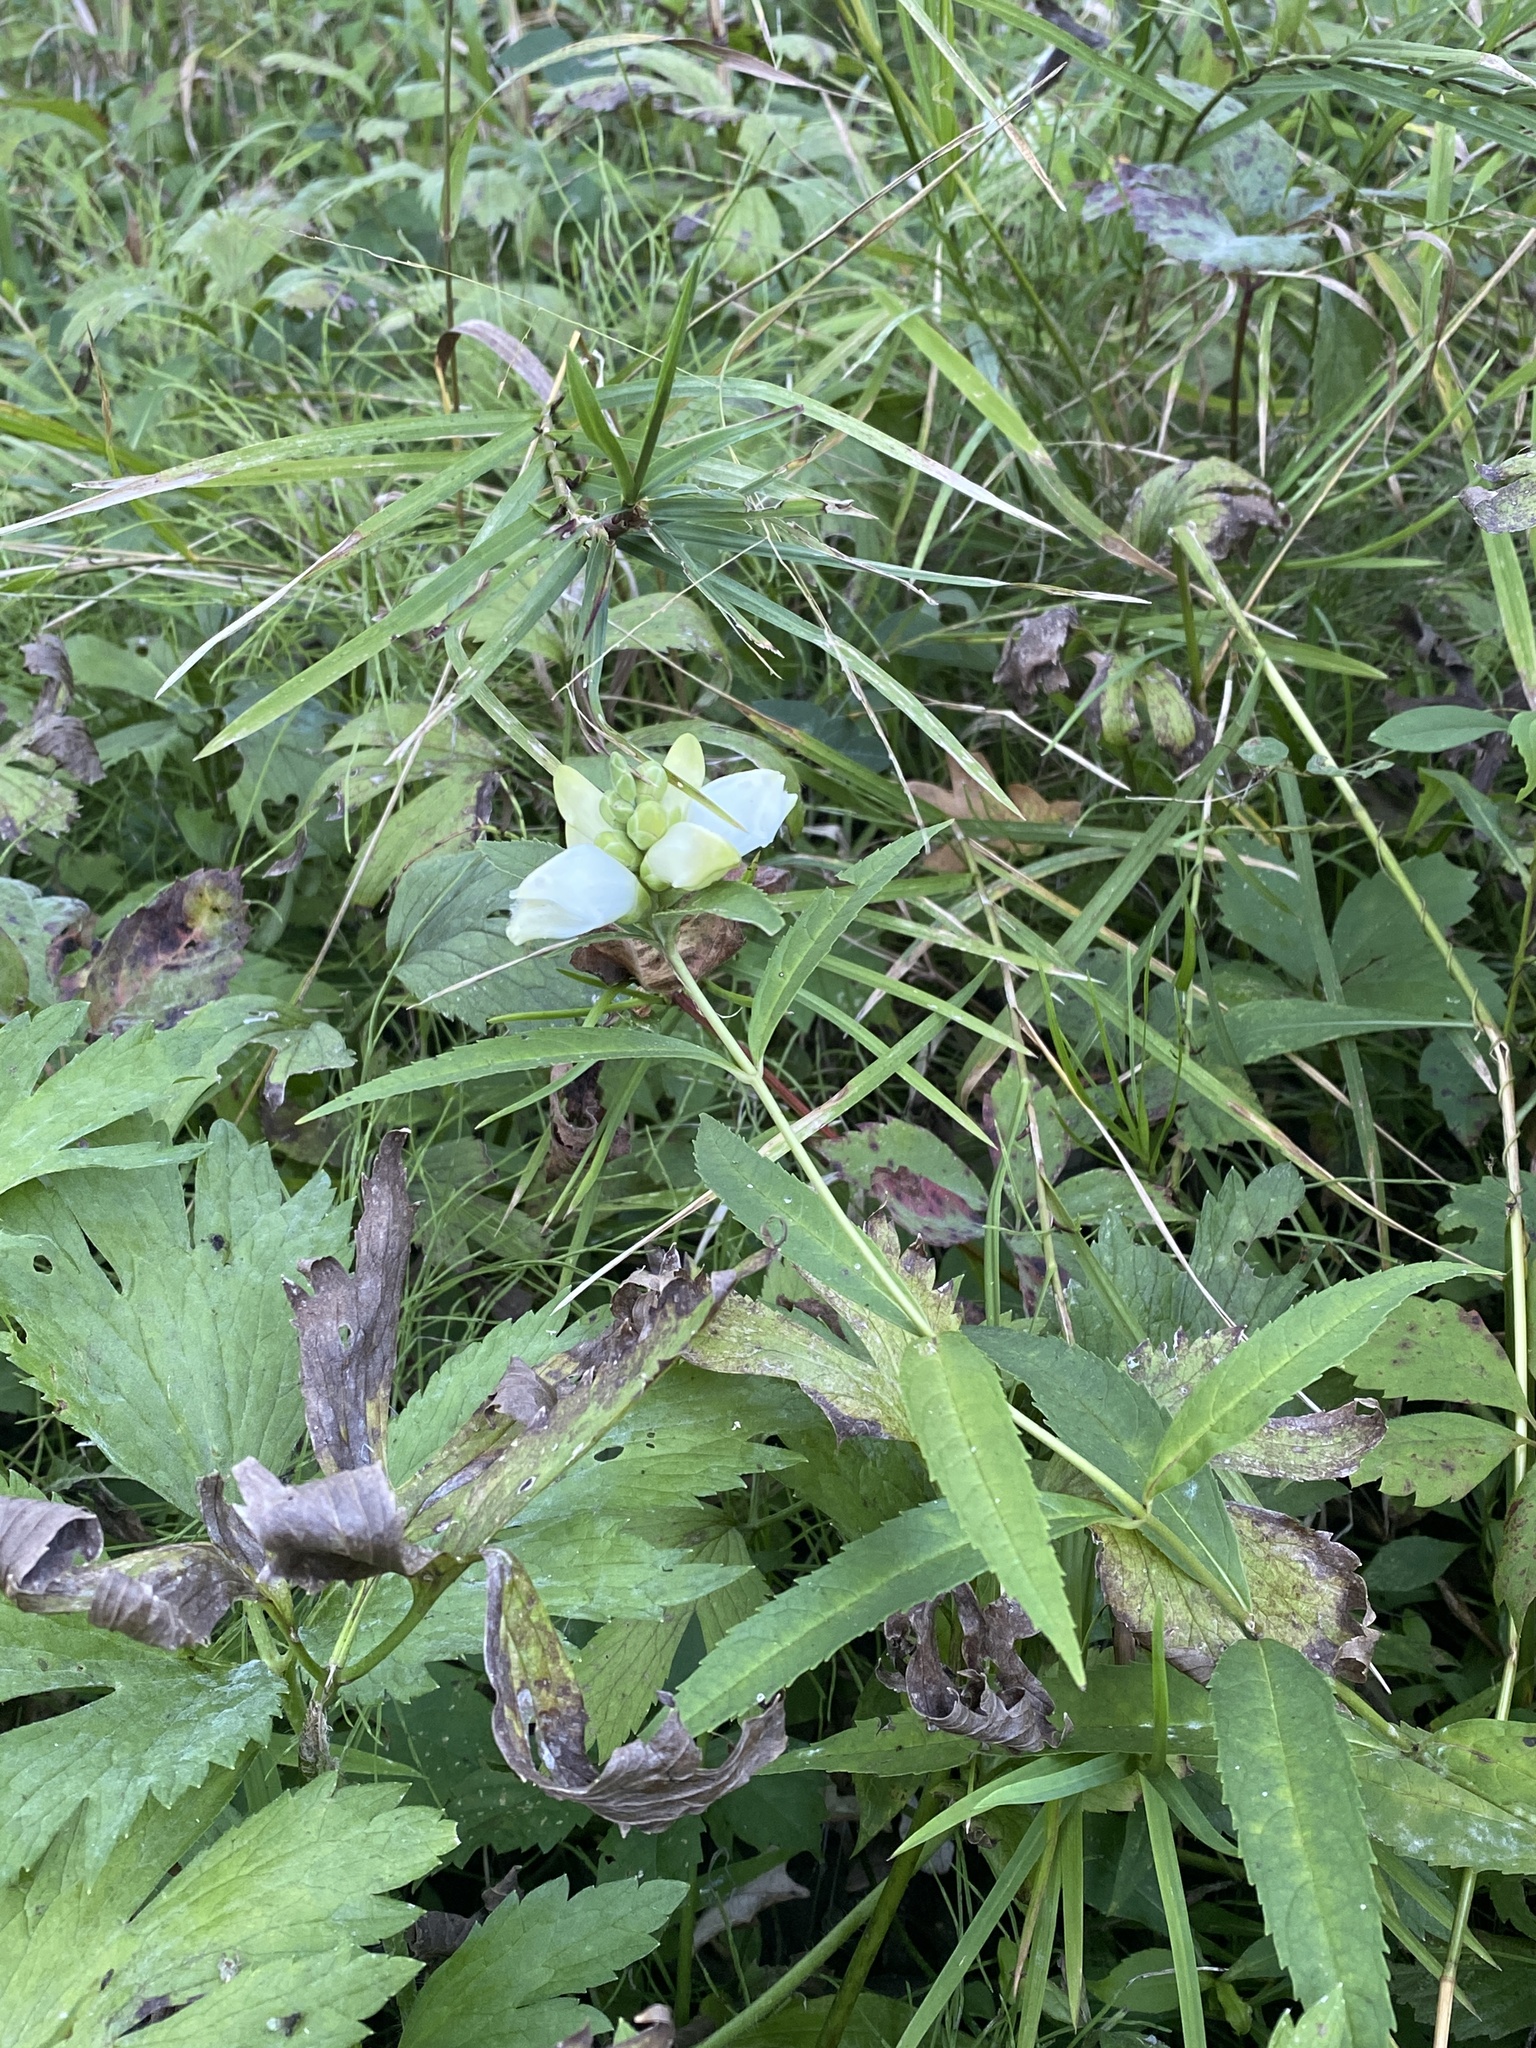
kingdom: Plantae
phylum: Tracheophyta
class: Magnoliopsida
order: Lamiales
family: Plantaginaceae
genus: Chelone
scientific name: Chelone glabra
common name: Snakehead
